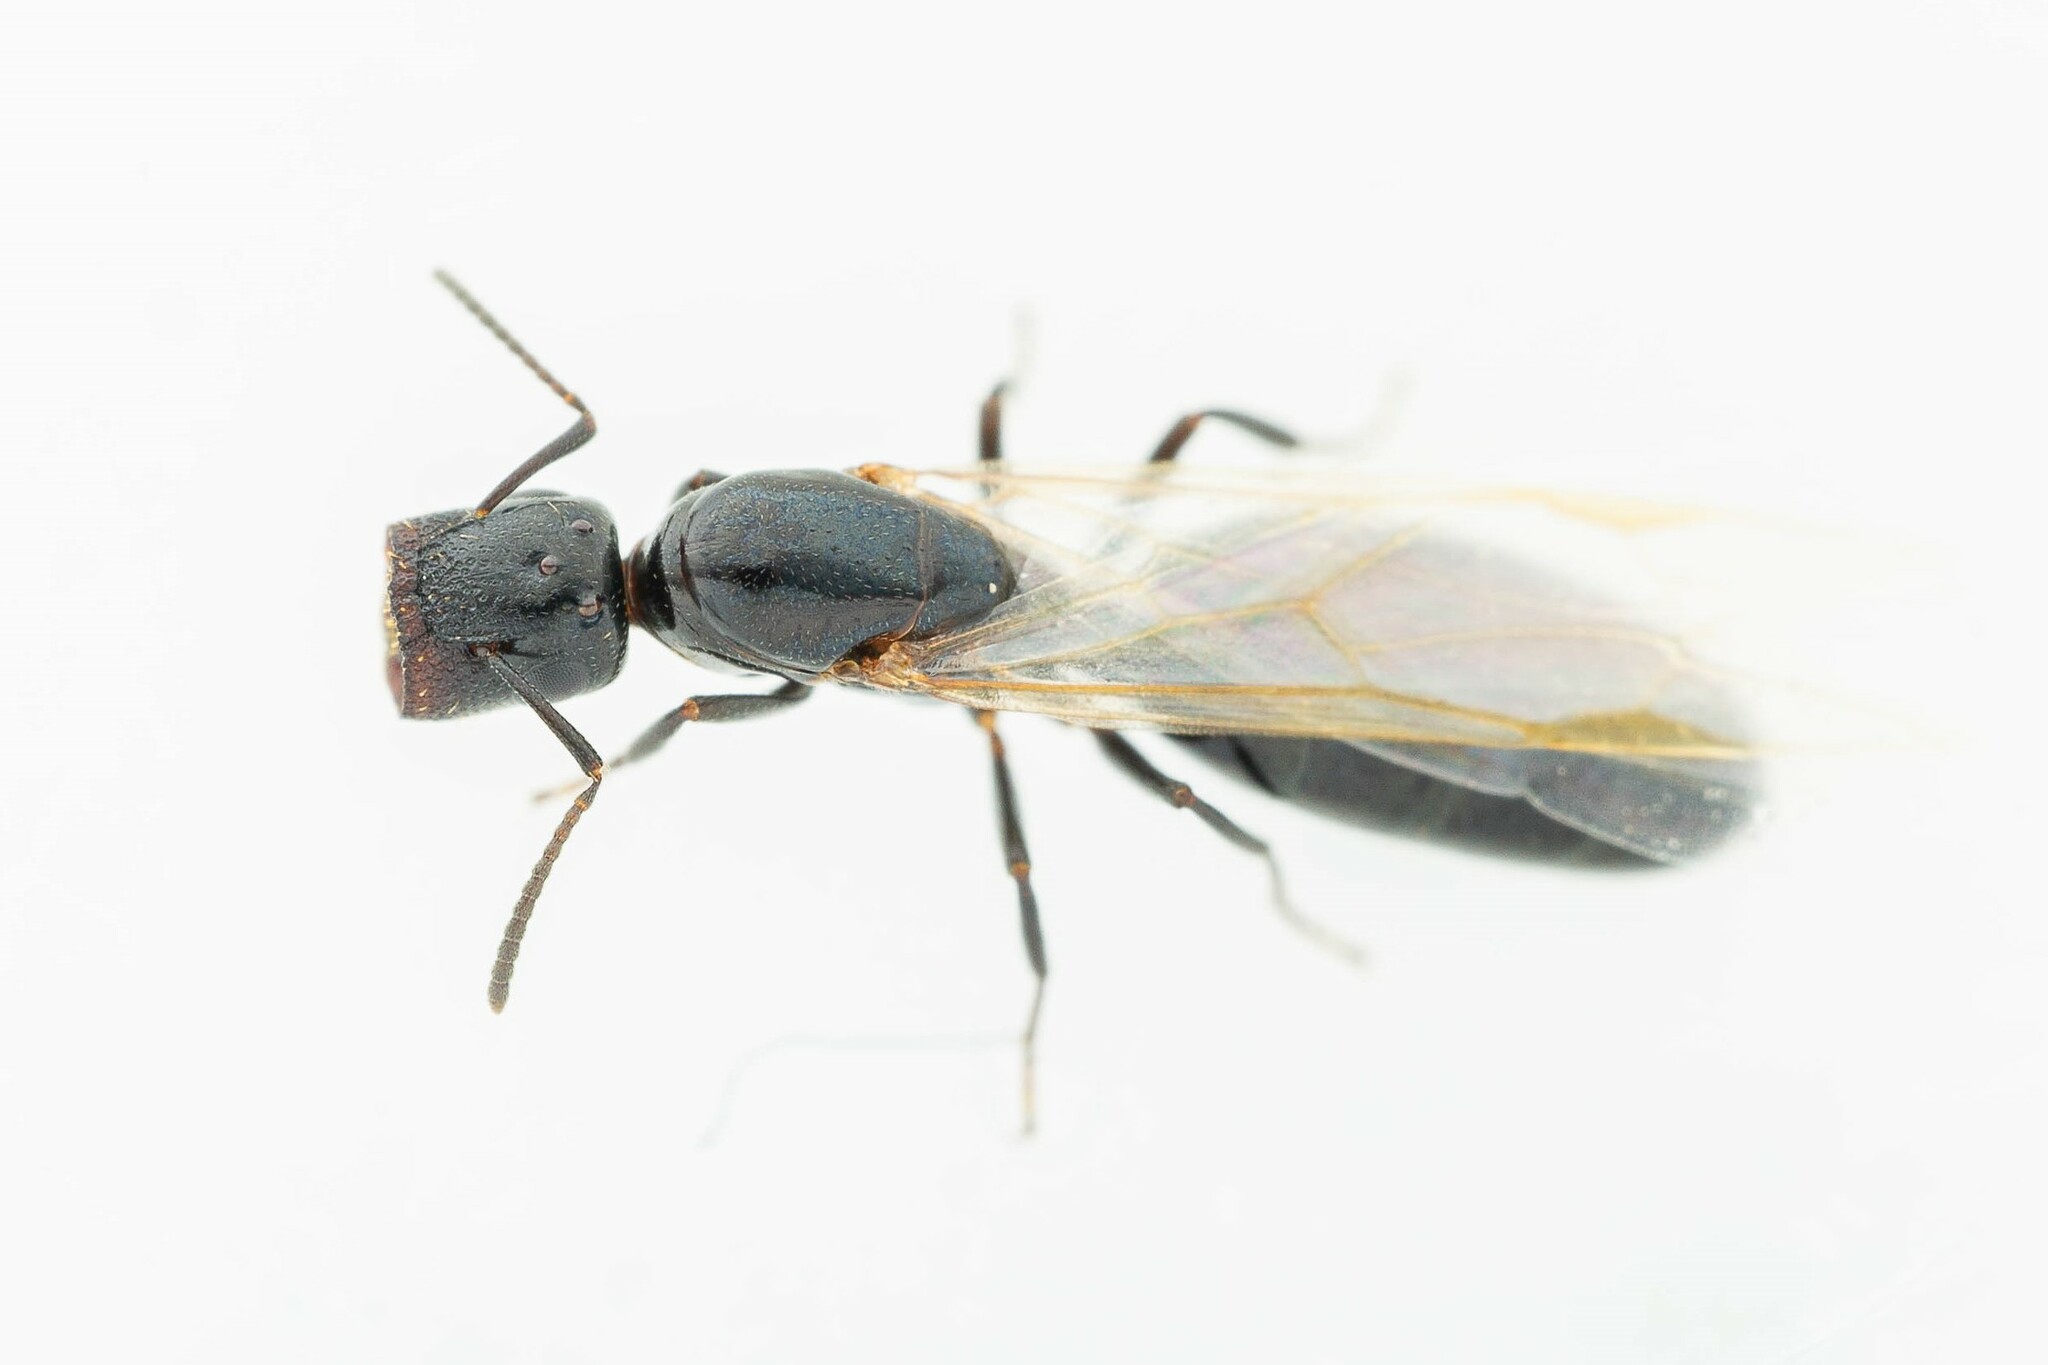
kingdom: Animalia
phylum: Arthropoda
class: Insecta
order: Hymenoptera
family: Formicidae
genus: Colobopsis
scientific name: Colobopsis
